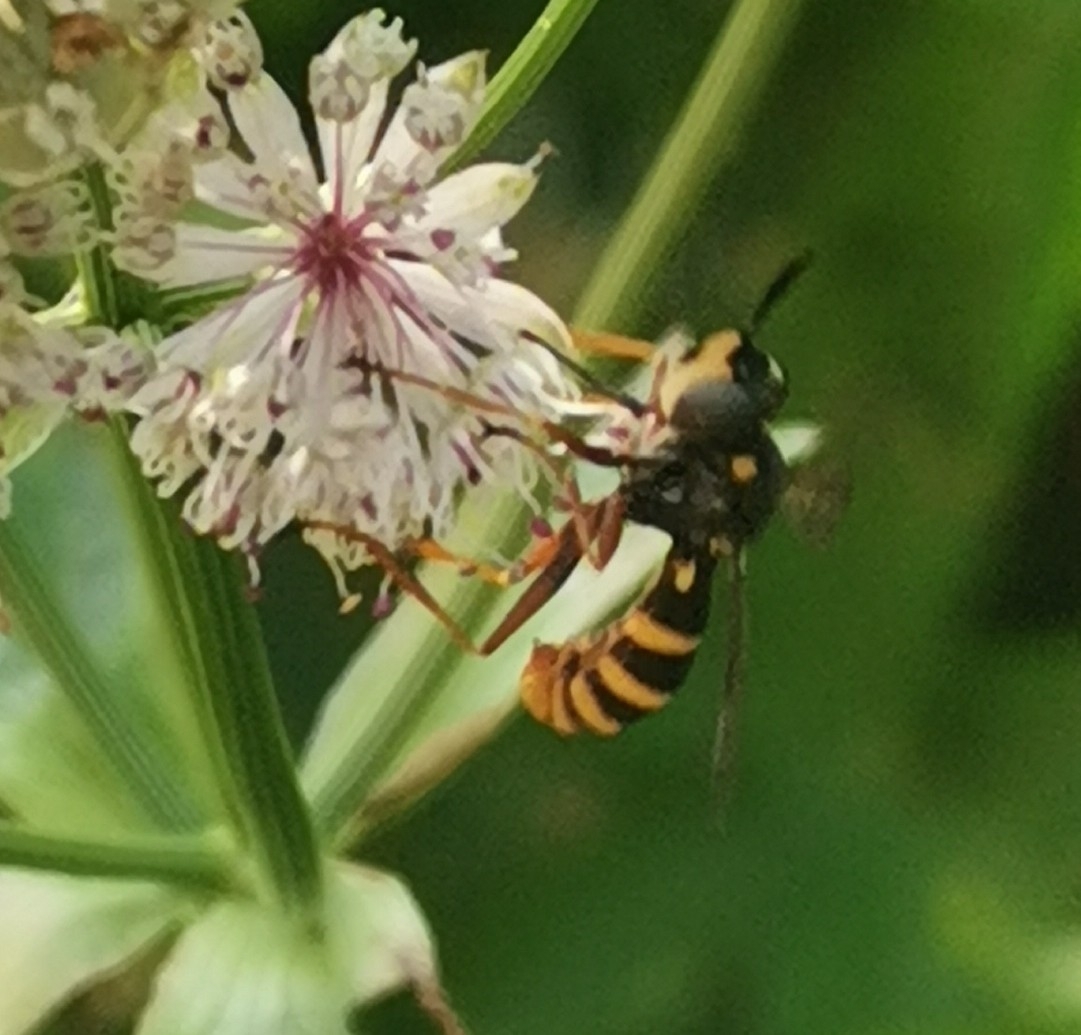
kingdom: Animalia
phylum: Arthropoda
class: Insecta
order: Diptera
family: Conopidae
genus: Conops
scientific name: Conops quadrifasciatus
